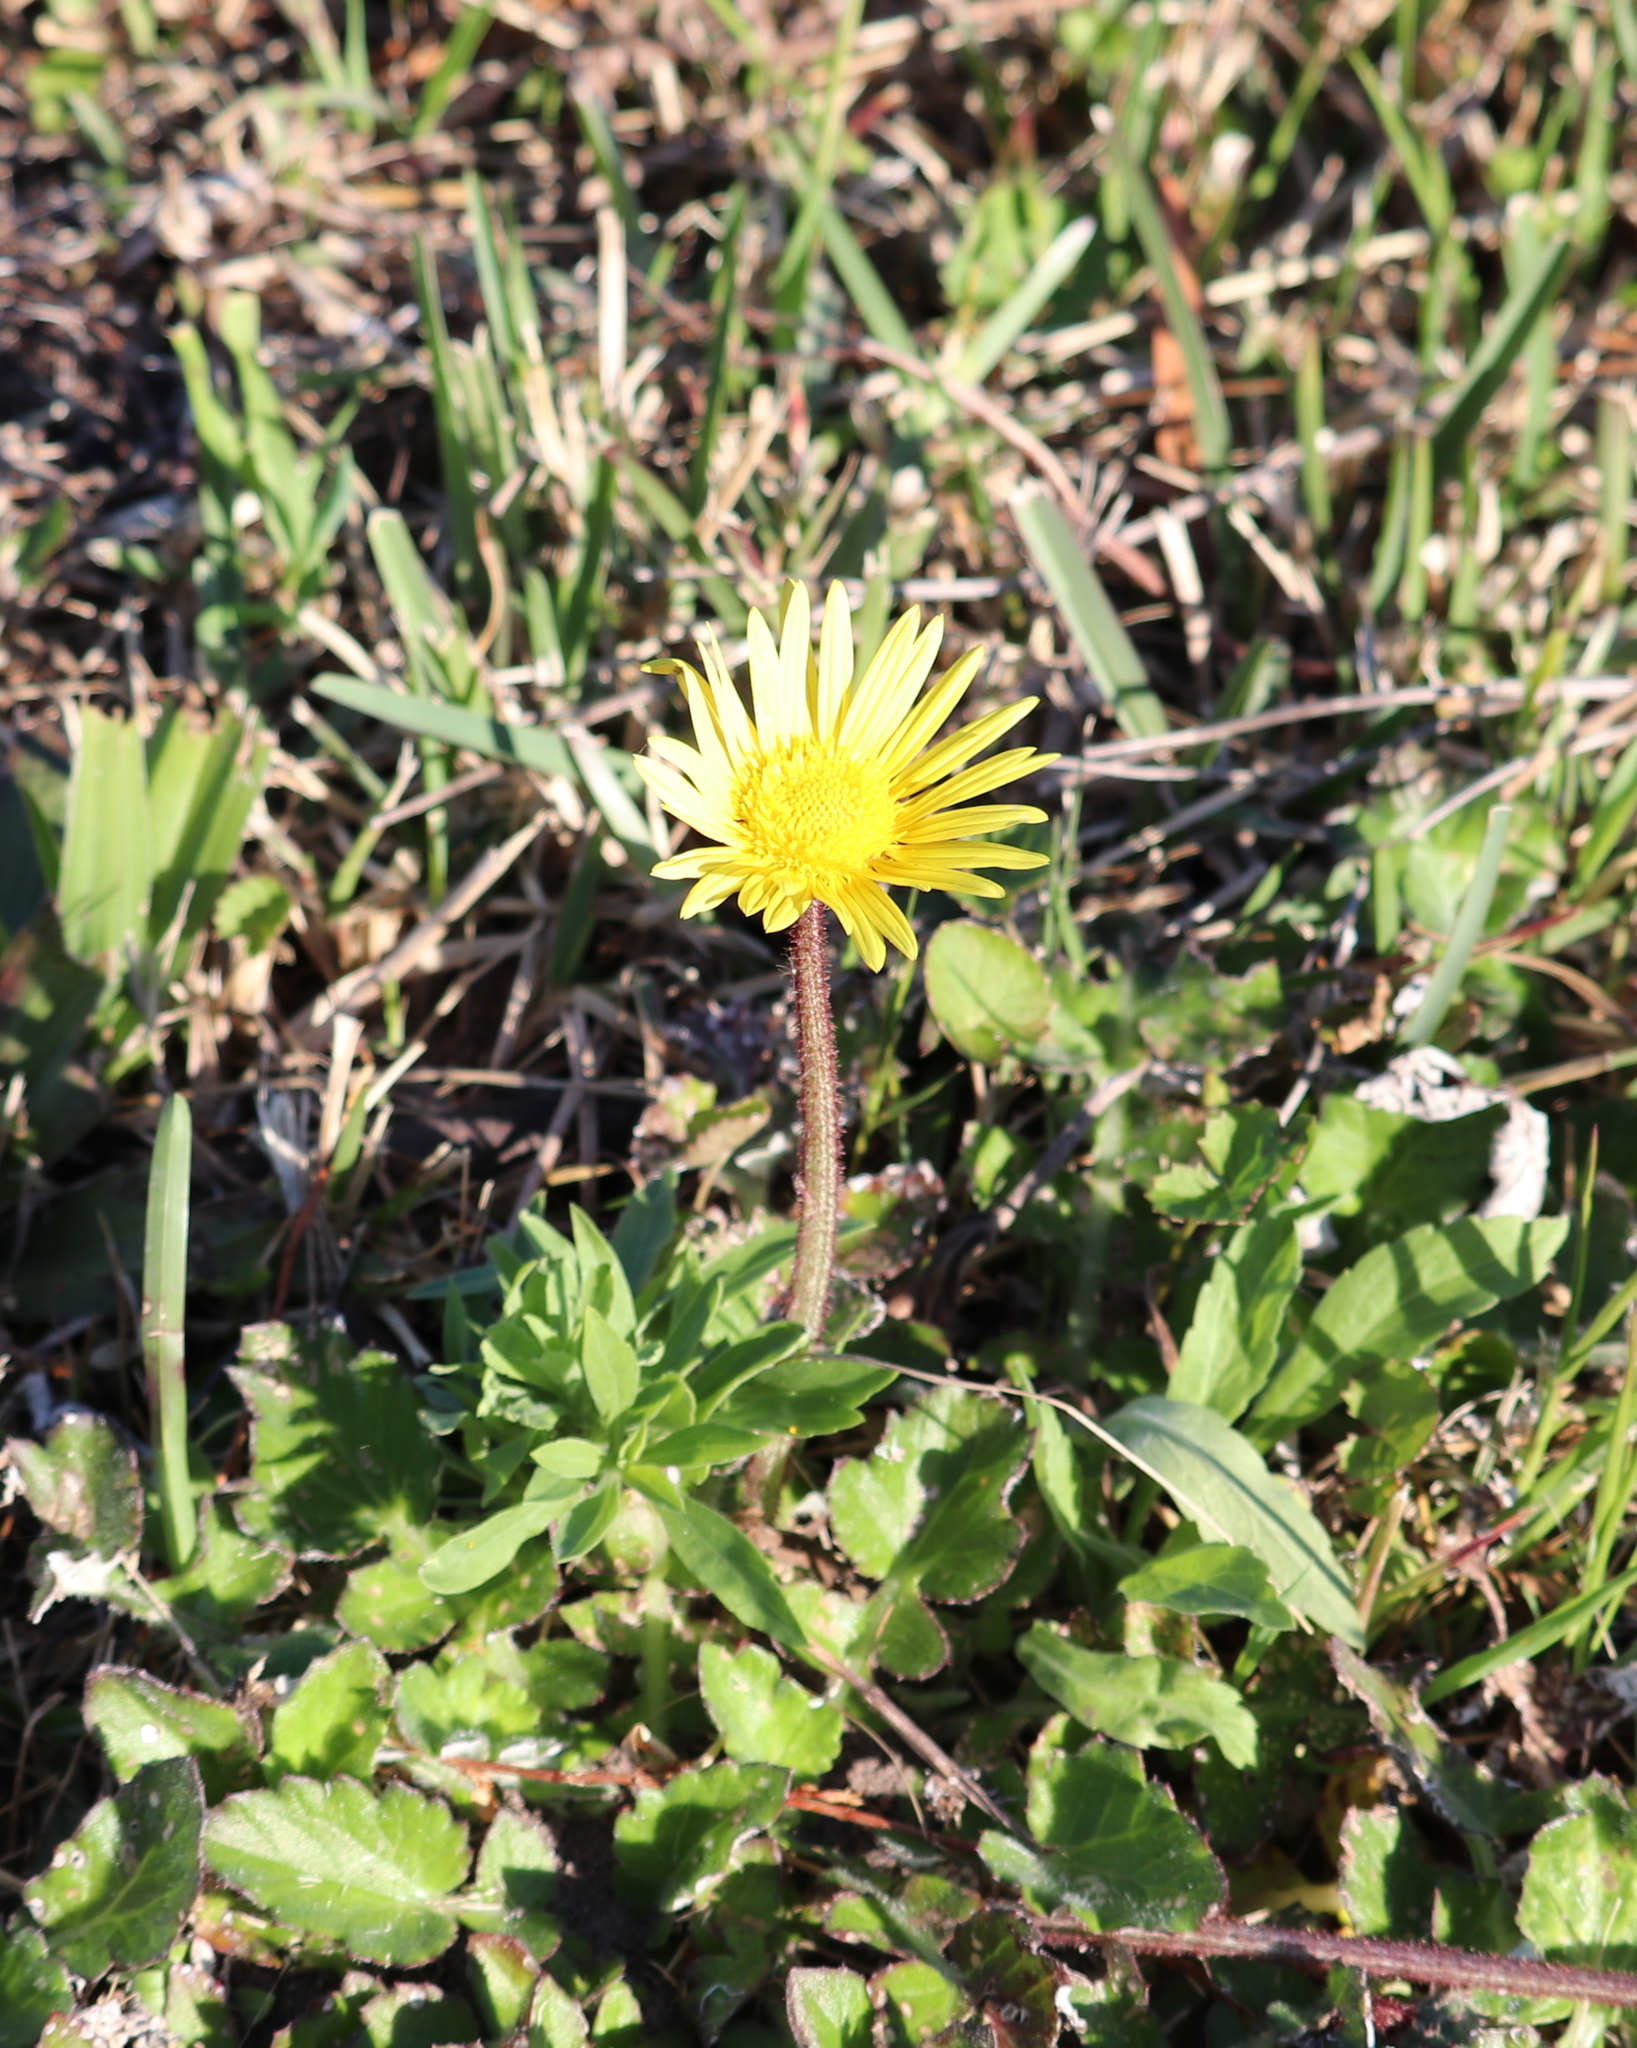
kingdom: Plantae
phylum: Tracheophyta
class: Magnoliopsida
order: Asterales
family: Asteraceae
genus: Arctotheca
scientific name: Arctotheca prostrata
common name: Capeweed
